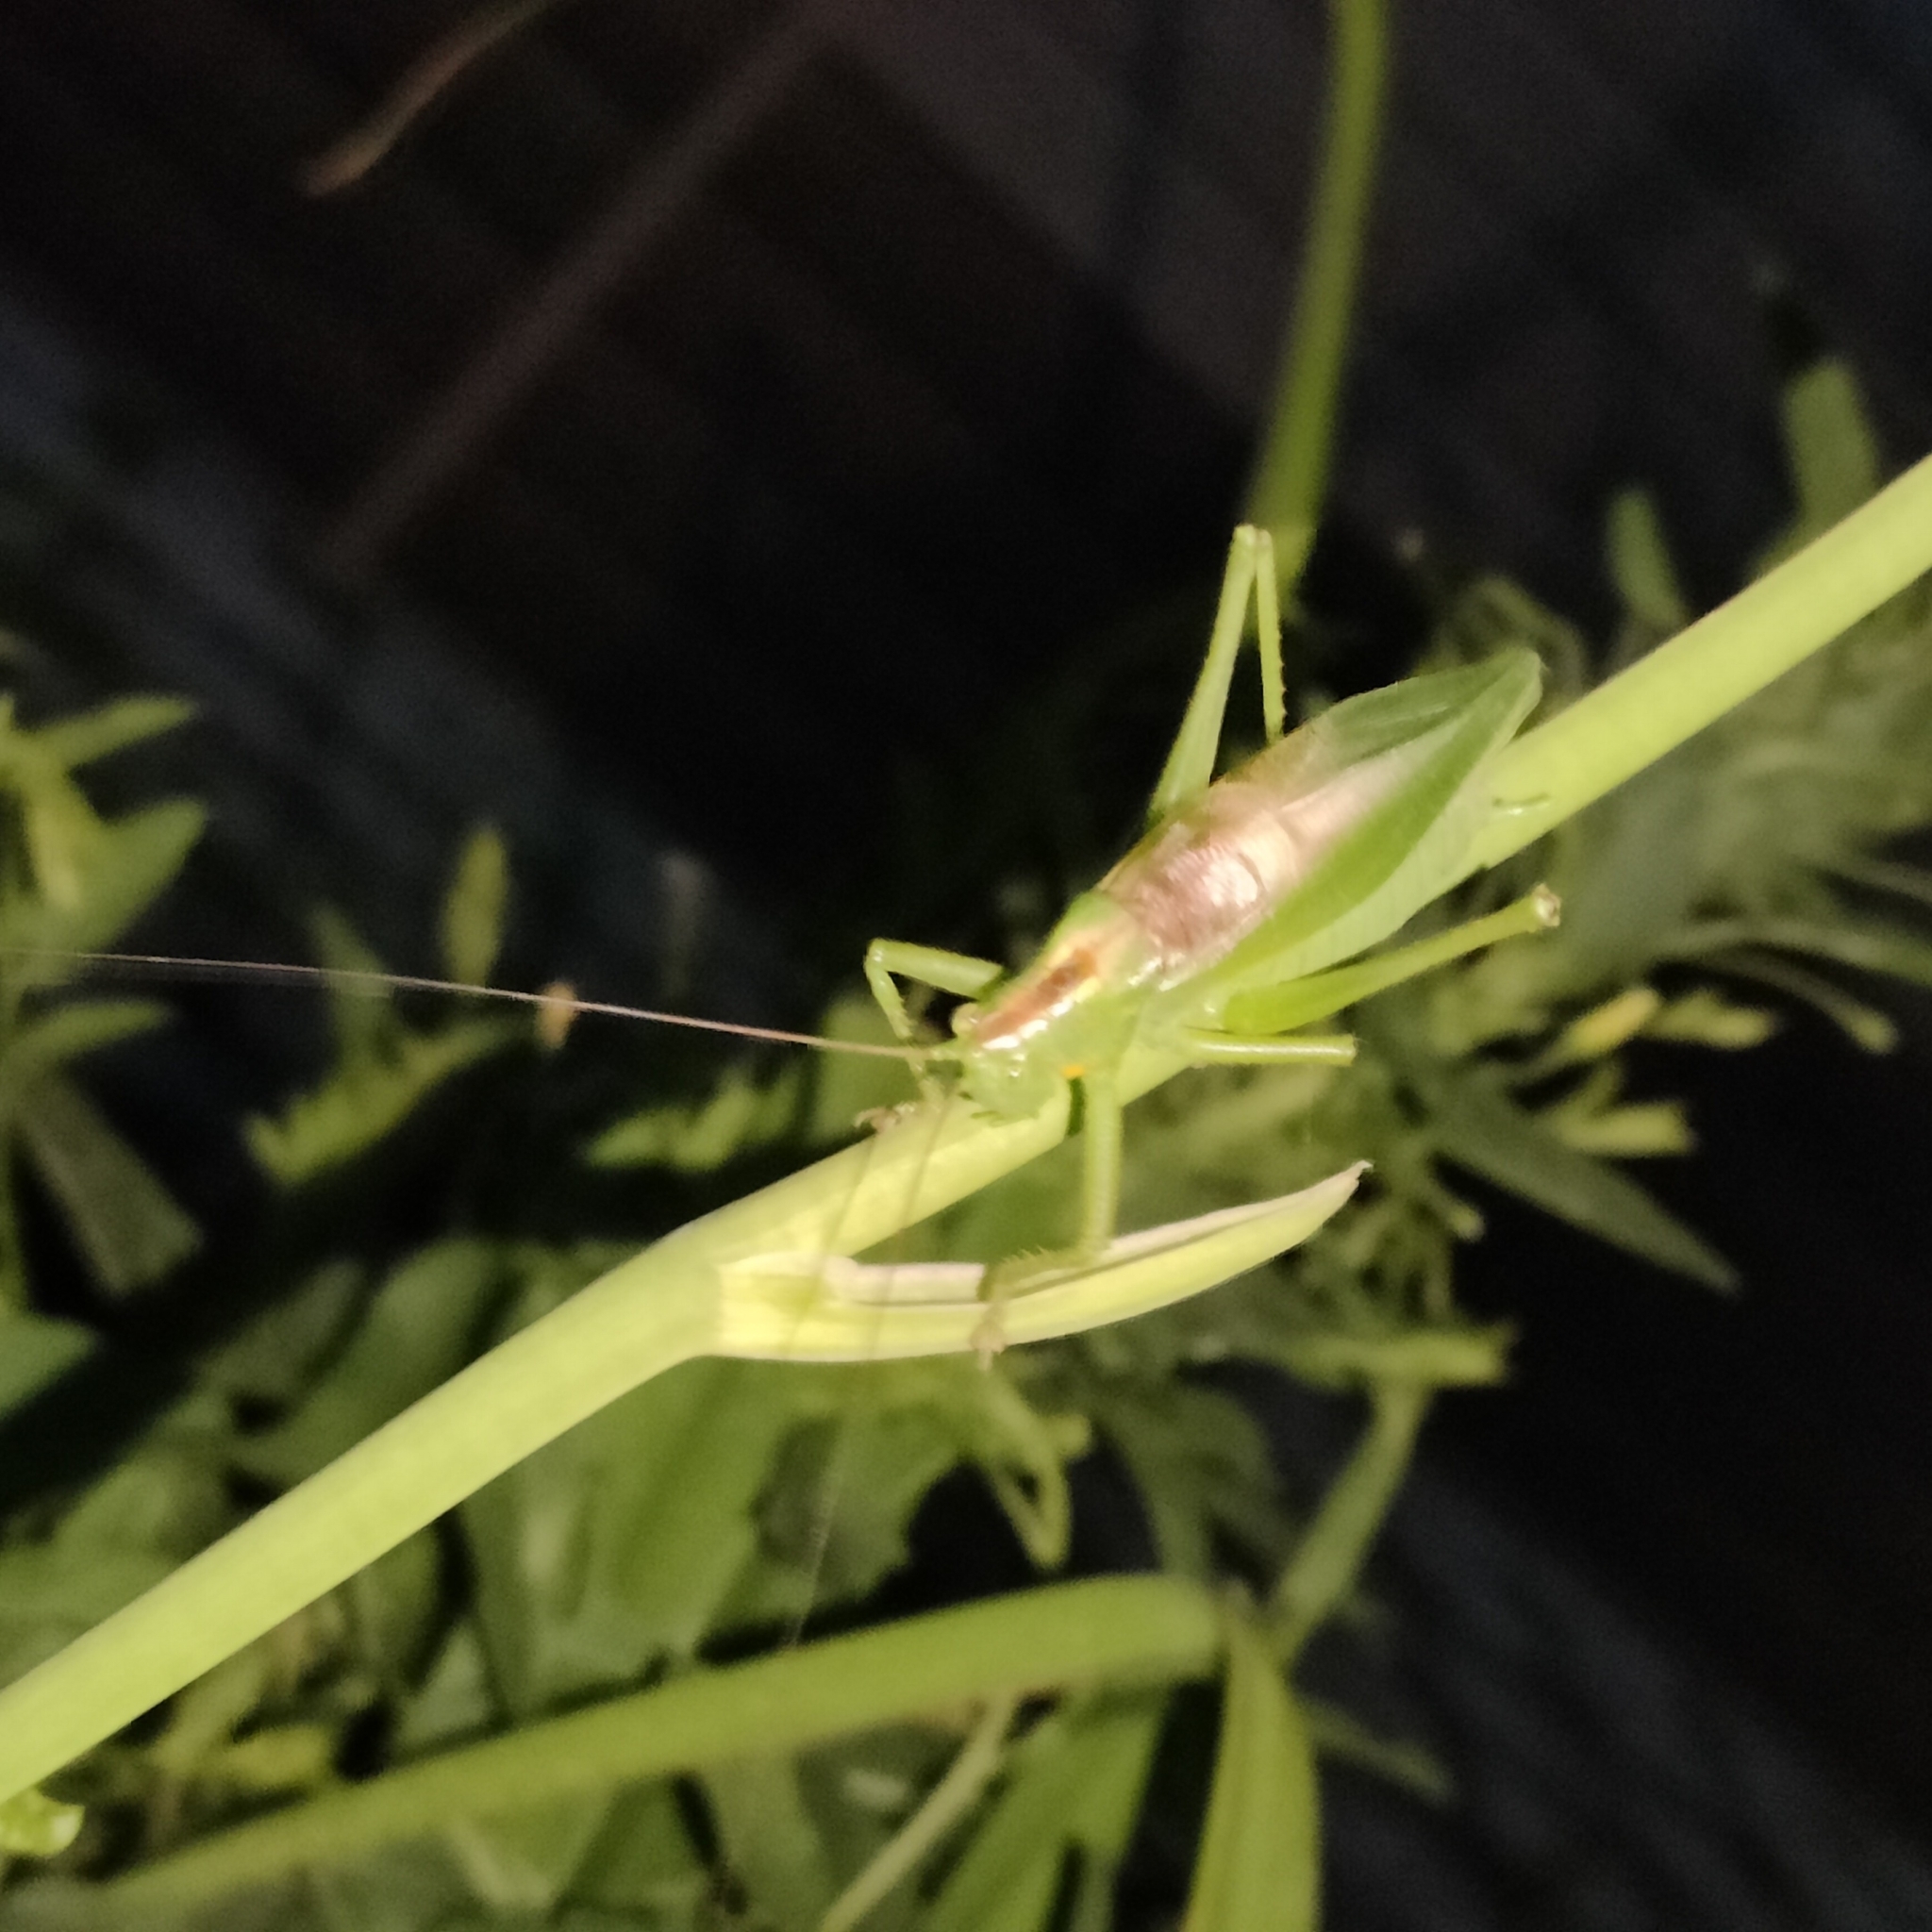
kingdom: Animalia
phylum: Arthropoda
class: Insecta
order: Orthoptera
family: Tettigoniidae
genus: Tettigonia
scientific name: Tettigonia cantans
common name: Upland green bush-cricket
